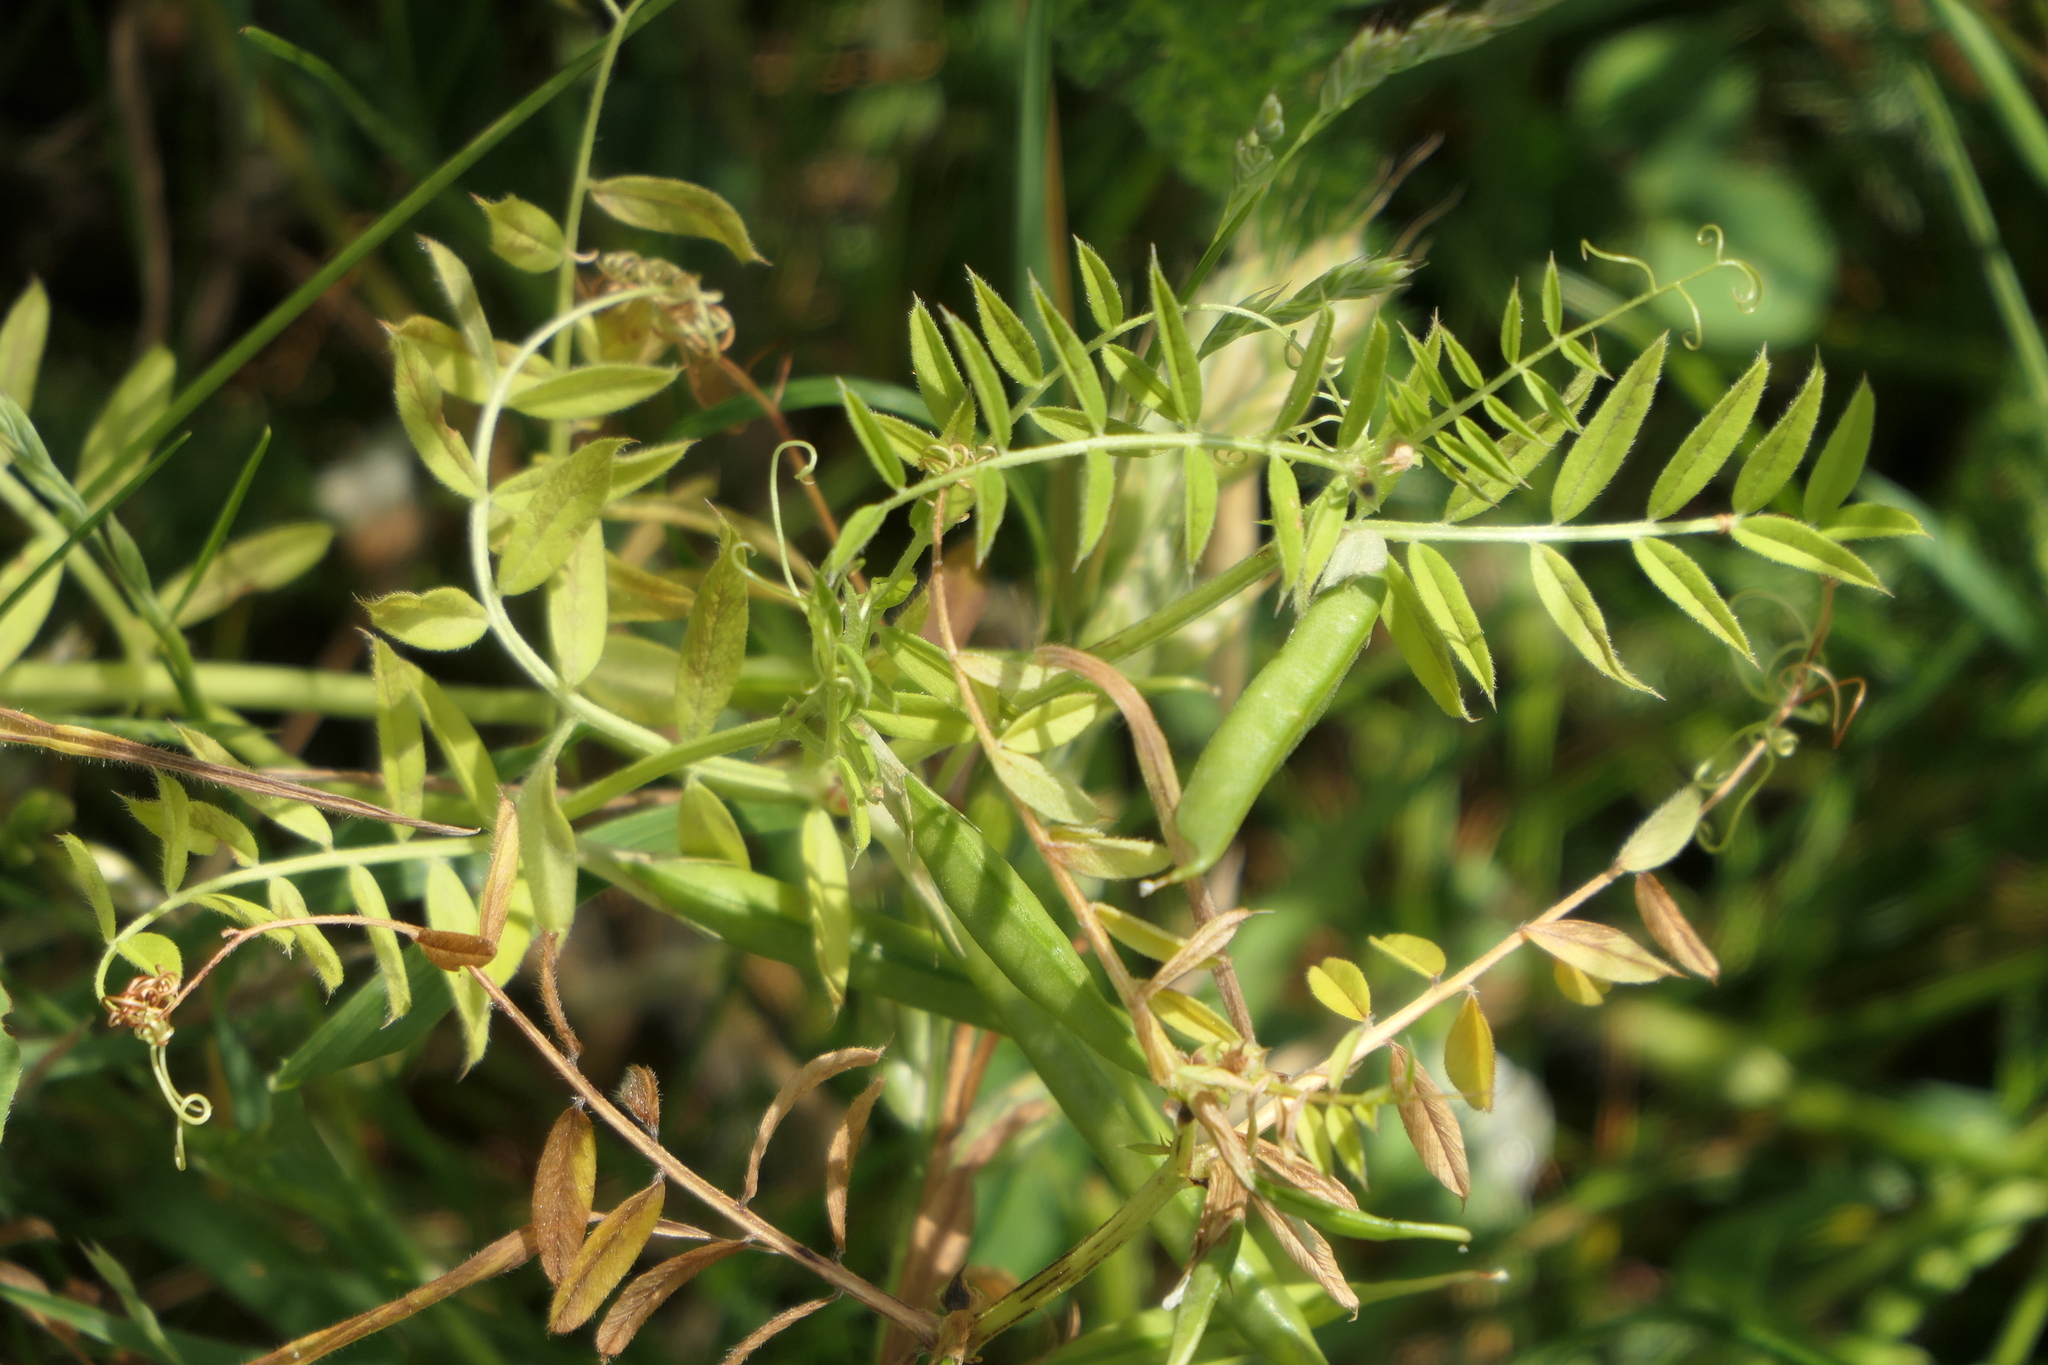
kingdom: Plantae
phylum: Tracheophyta
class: Magnoliopsida
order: Fabales
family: Fabaceae
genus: Vicia
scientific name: Vicia sativa
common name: Garden vetch
